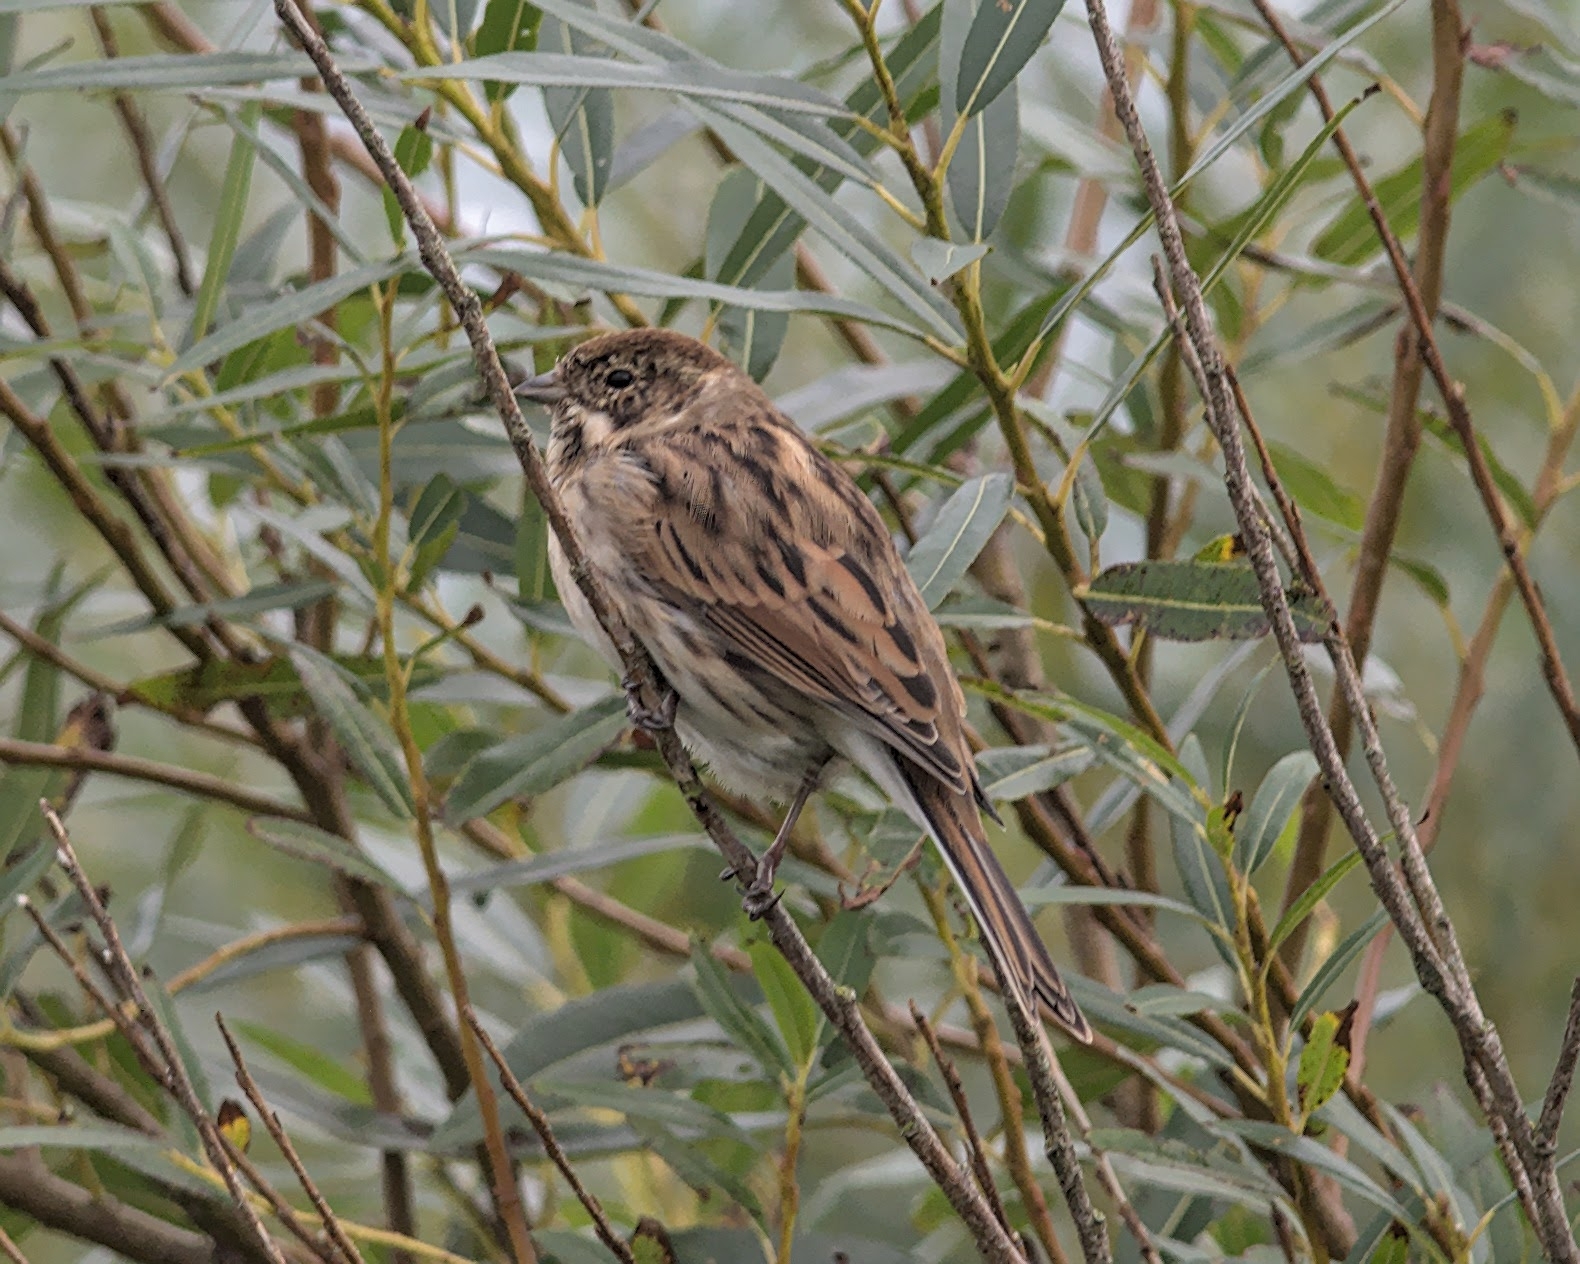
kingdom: Animalia
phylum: Chordata
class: Aves
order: Passeriformes
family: Emberizidae
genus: Emberiza
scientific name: Emberiza schoeniclus
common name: Reed bunting
